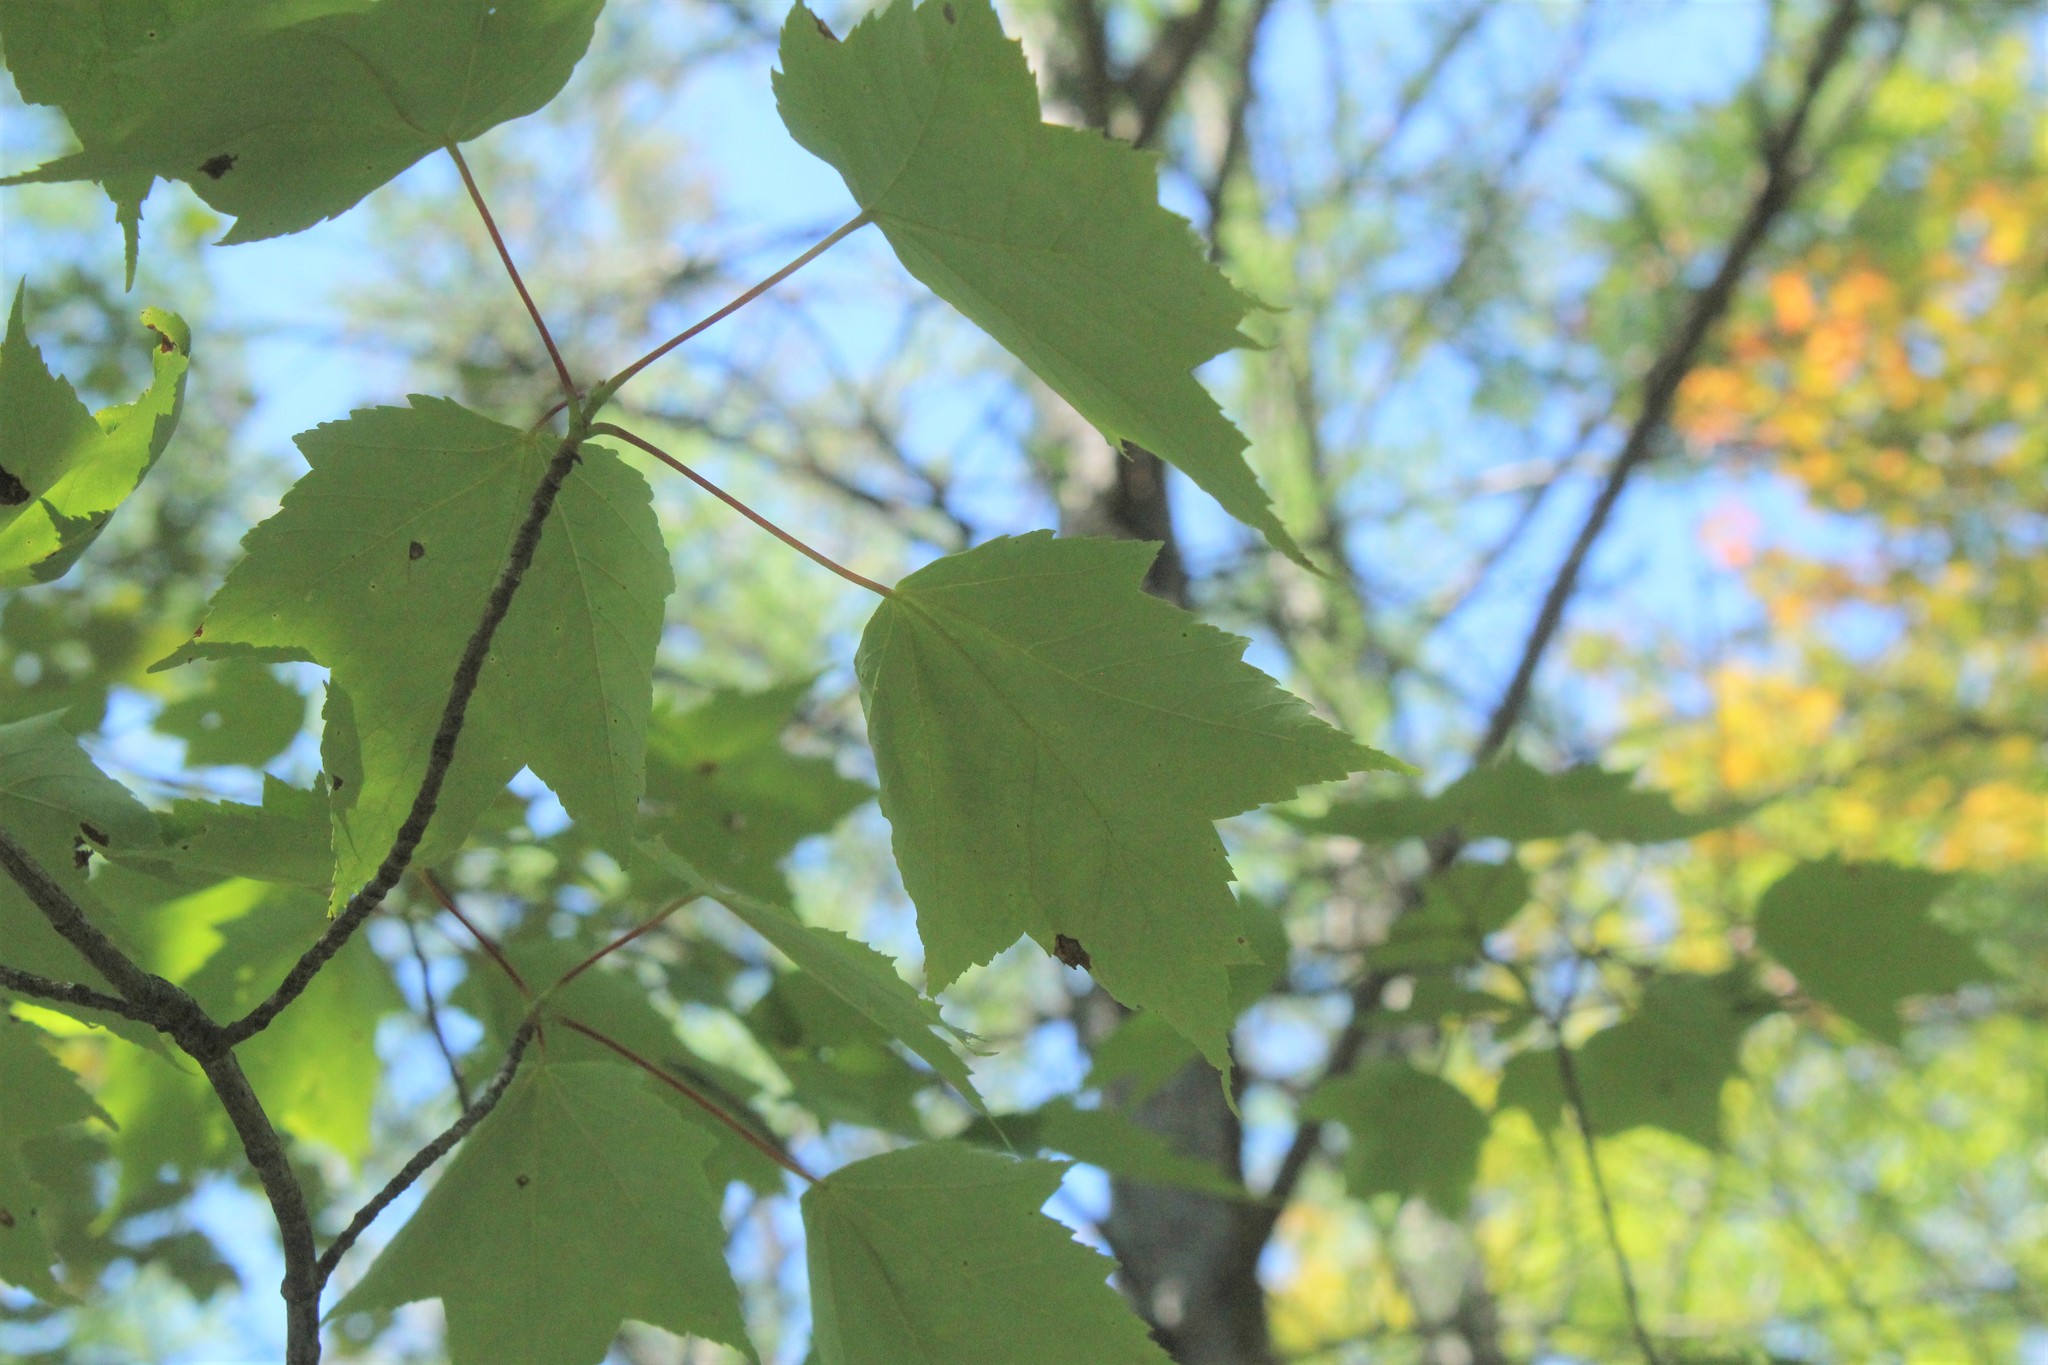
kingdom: Plantae
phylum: Tracheophyta
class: Magnoliopsida
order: Sapindales
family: Sapindaceae
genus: Acer
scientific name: Acer rubrum
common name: Red maple
